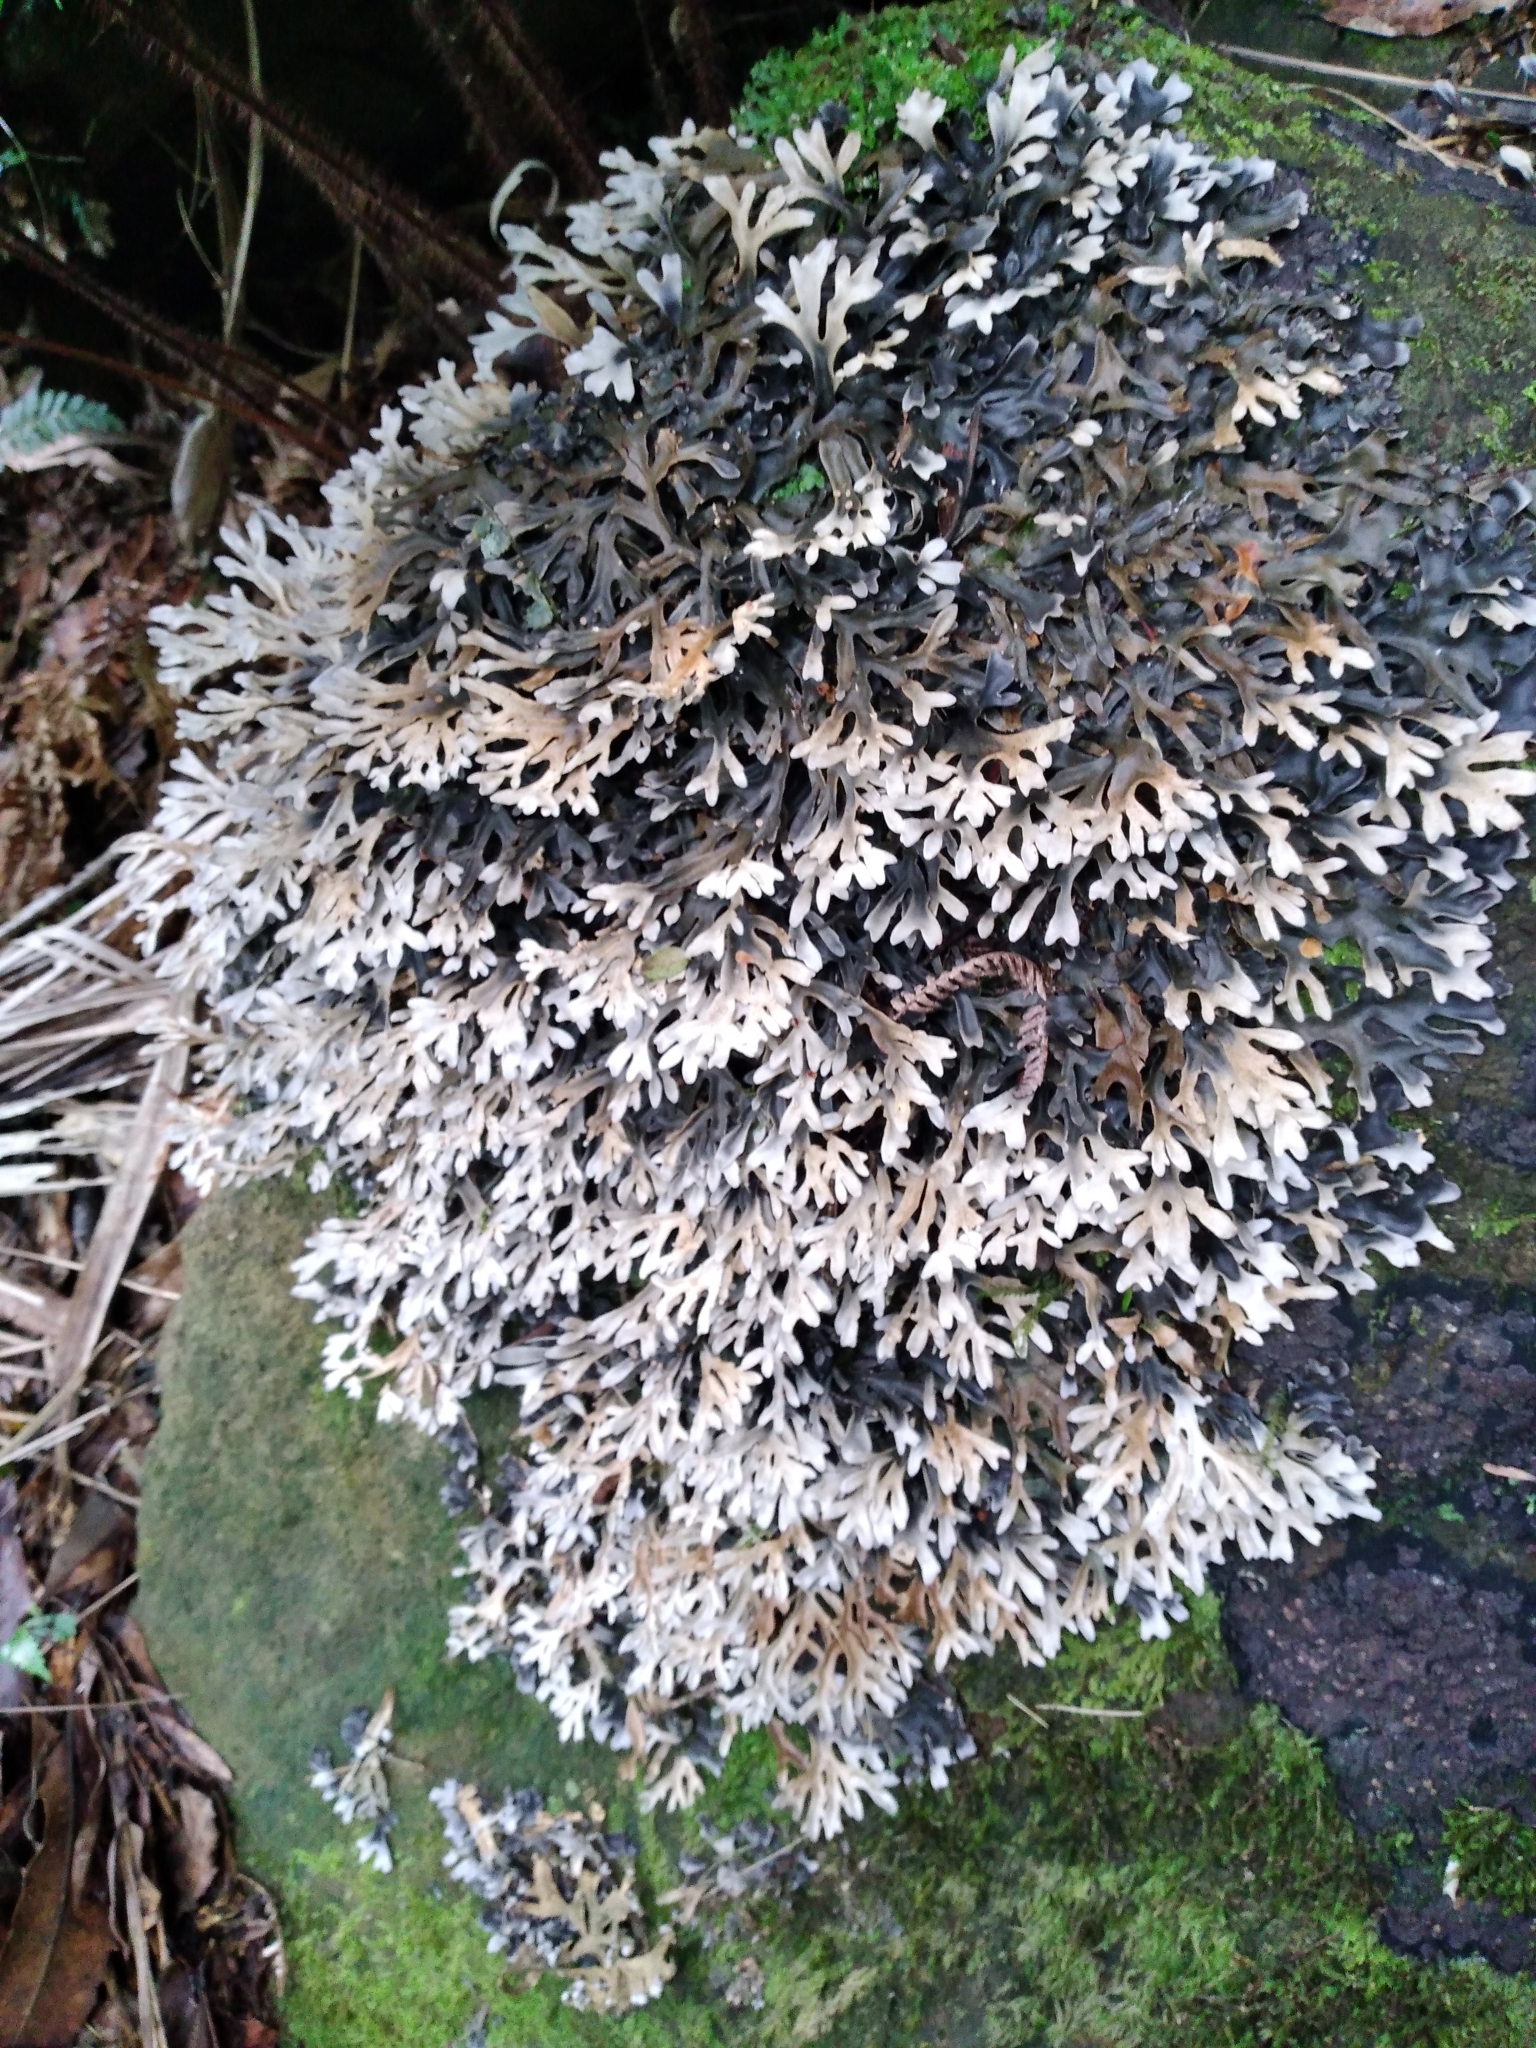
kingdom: Fungi
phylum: Ascomycota
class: Lecanoromycetes
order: Peltigerales
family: Lobariaceae
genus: Pseudocyphellaria
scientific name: Pseudocyphellaria cinnamomea
